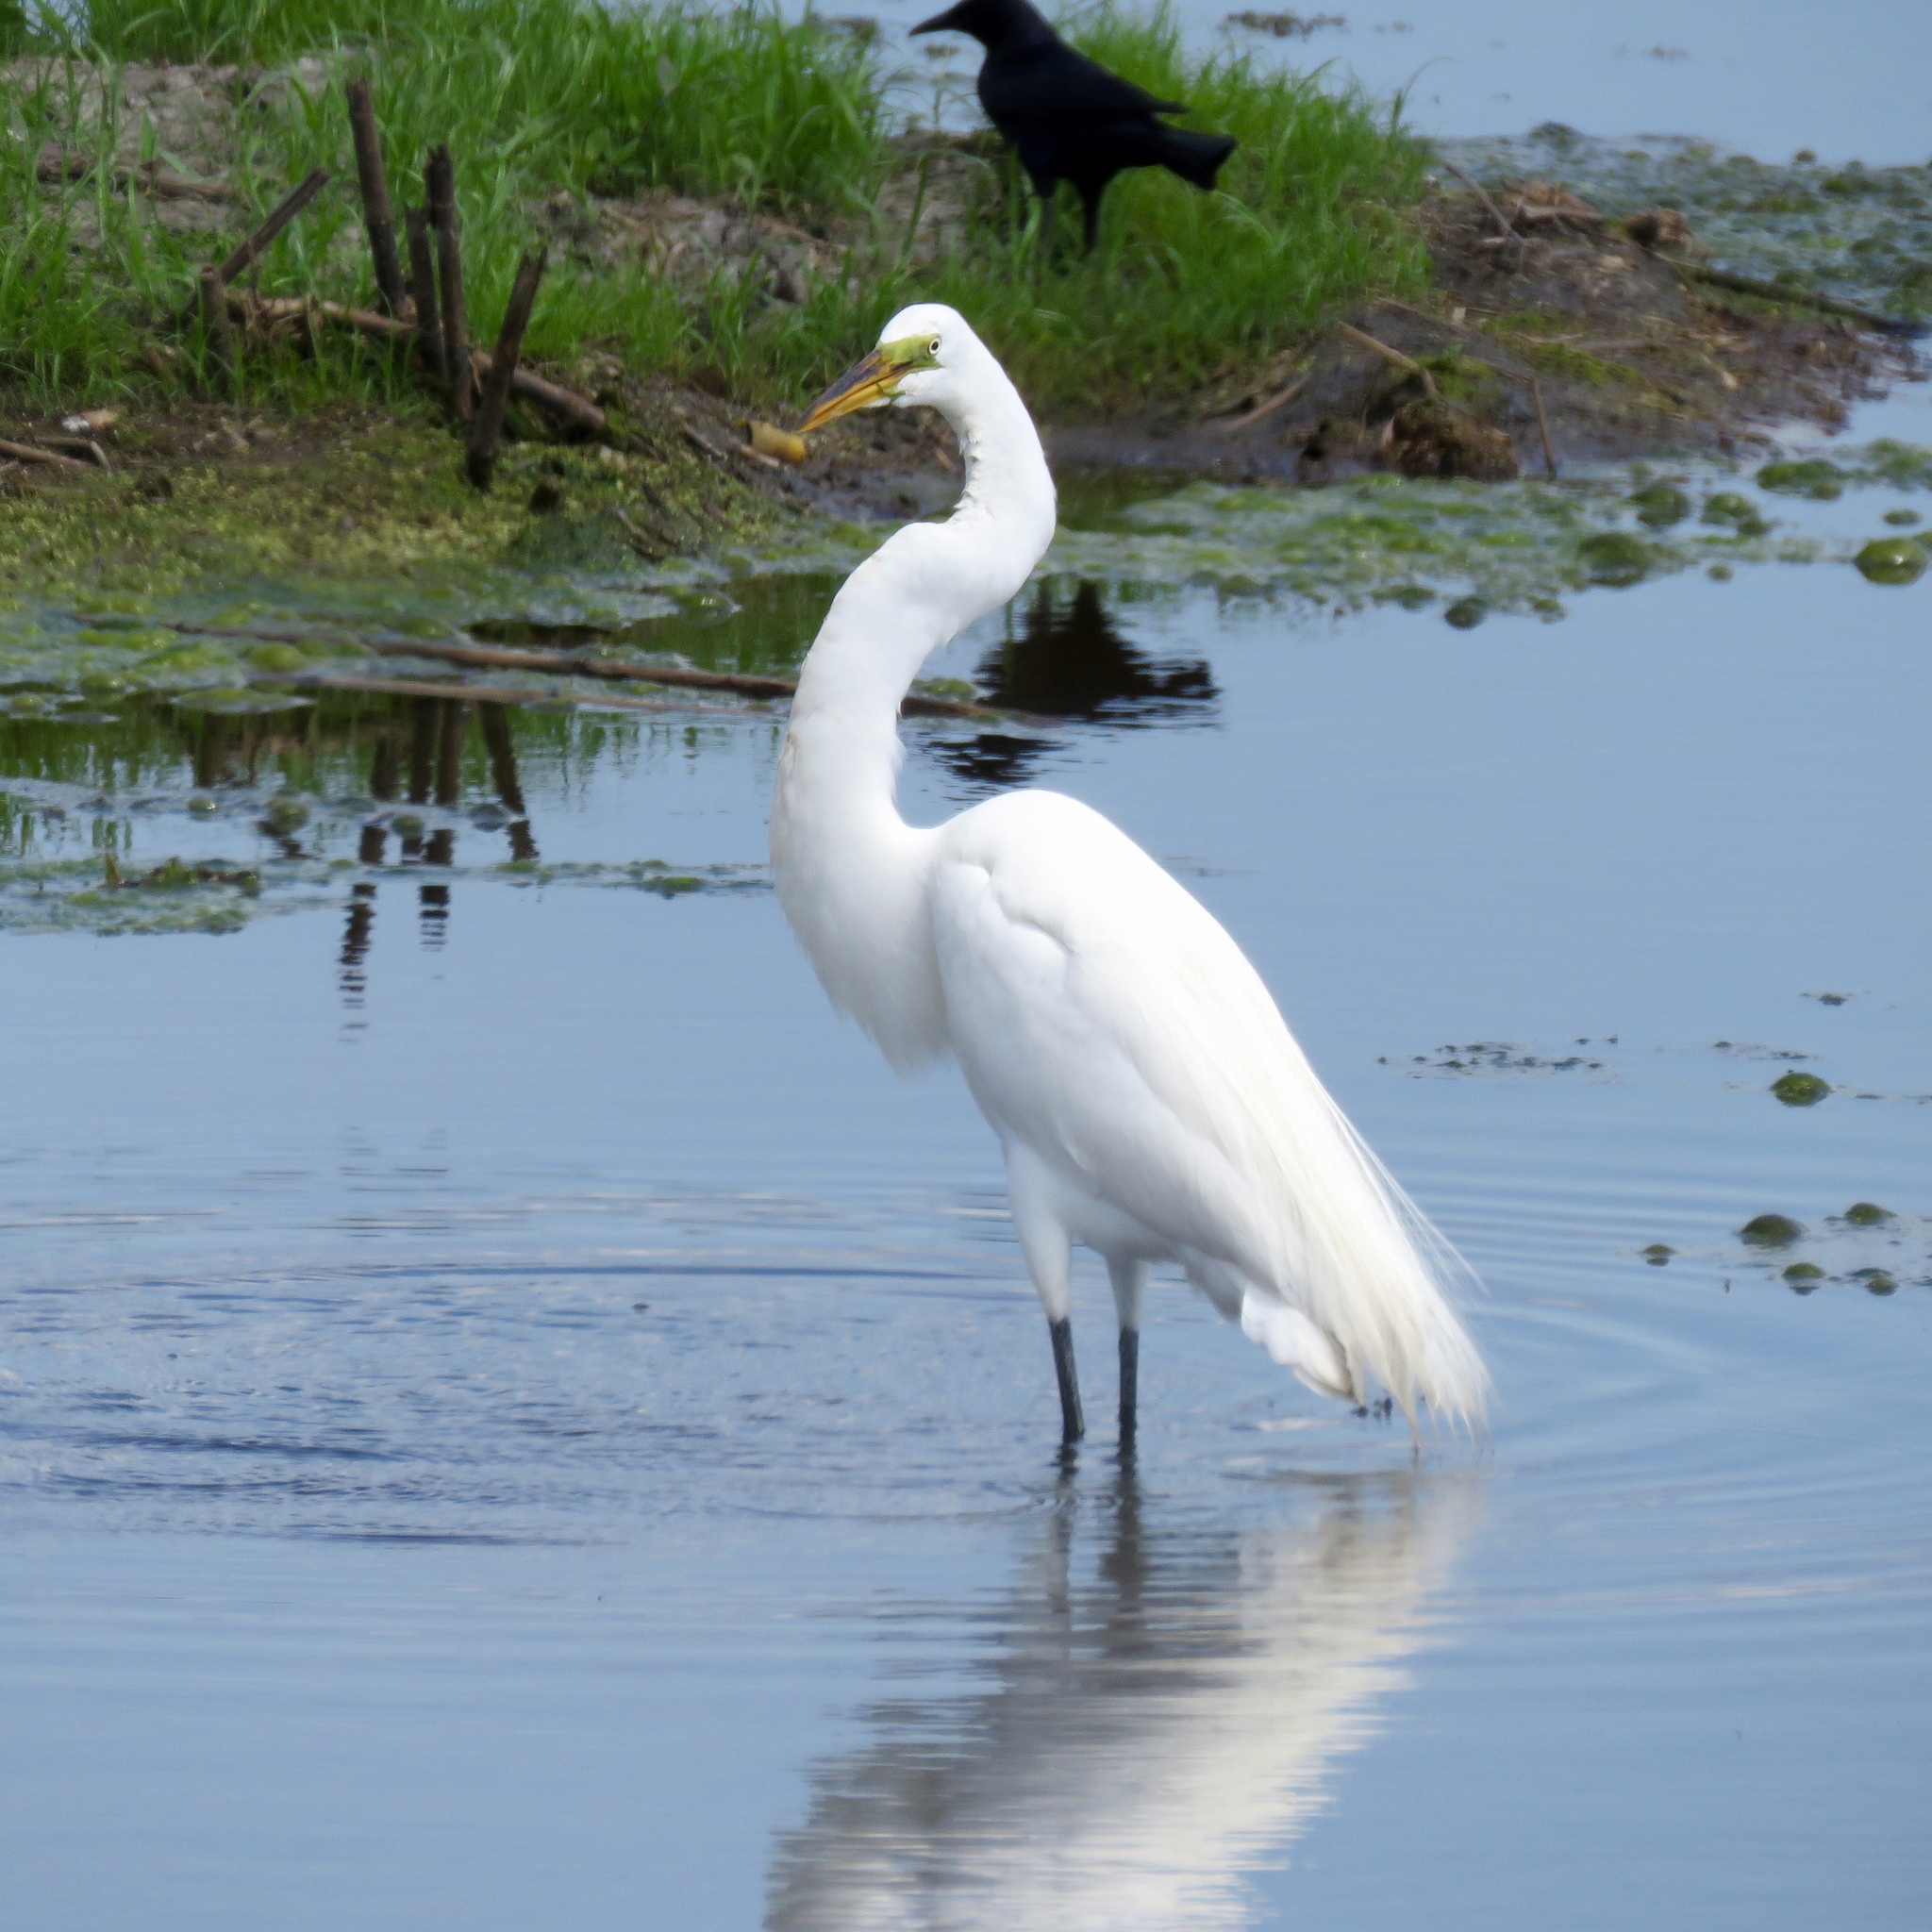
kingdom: Animalia
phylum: Chordata
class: Aves
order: Pelecaniformes
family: Ardeidae
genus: Ardea
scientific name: Ardea alba
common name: Great egret
